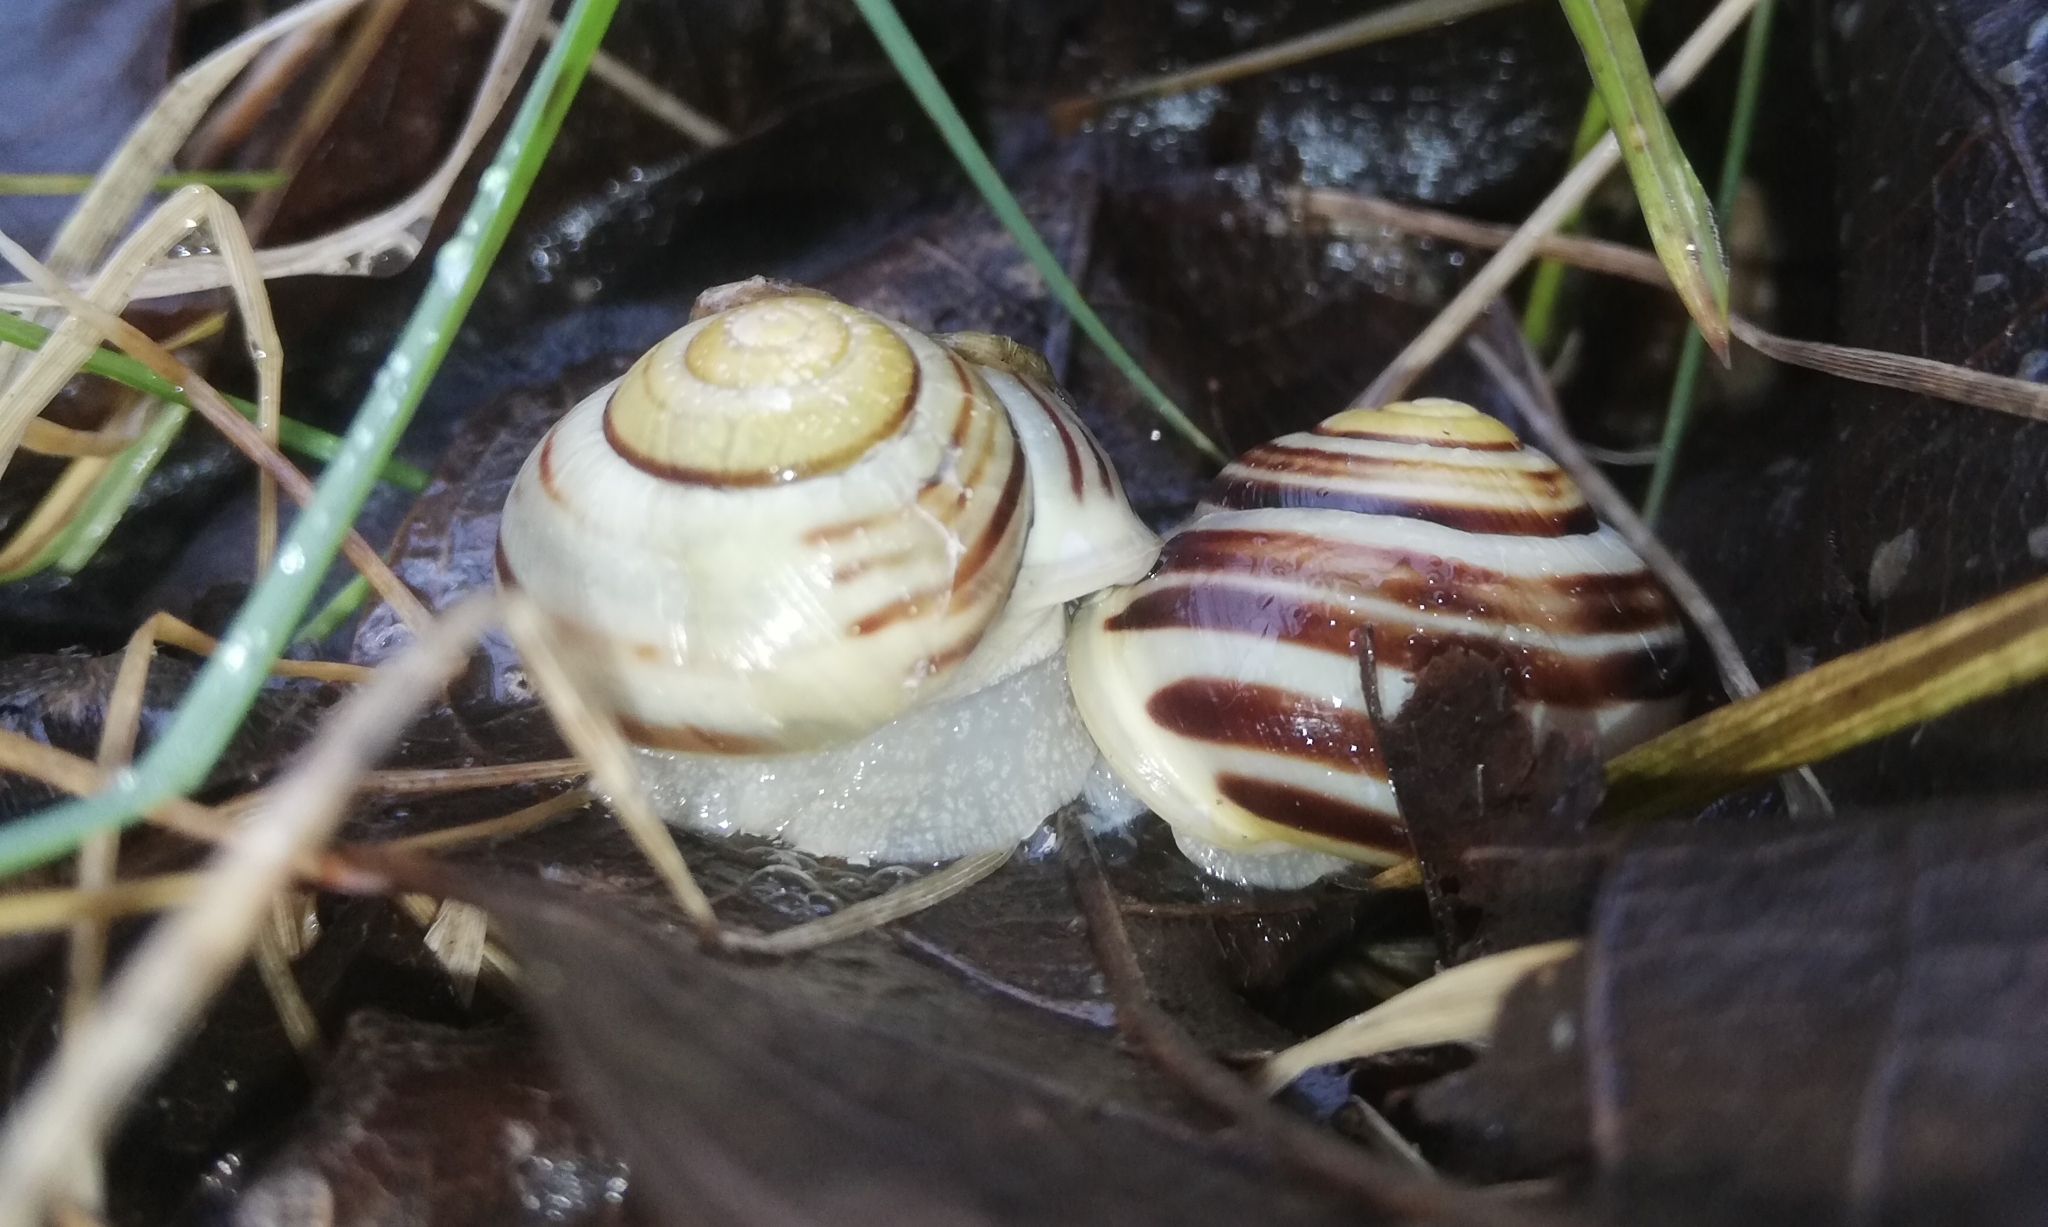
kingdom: Animalia
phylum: Mollusca
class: Gastropoda
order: Stylommatophora
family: Helicidae
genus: Cepaea
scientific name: Cepaea hortensis
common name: White-lip gardensnail
